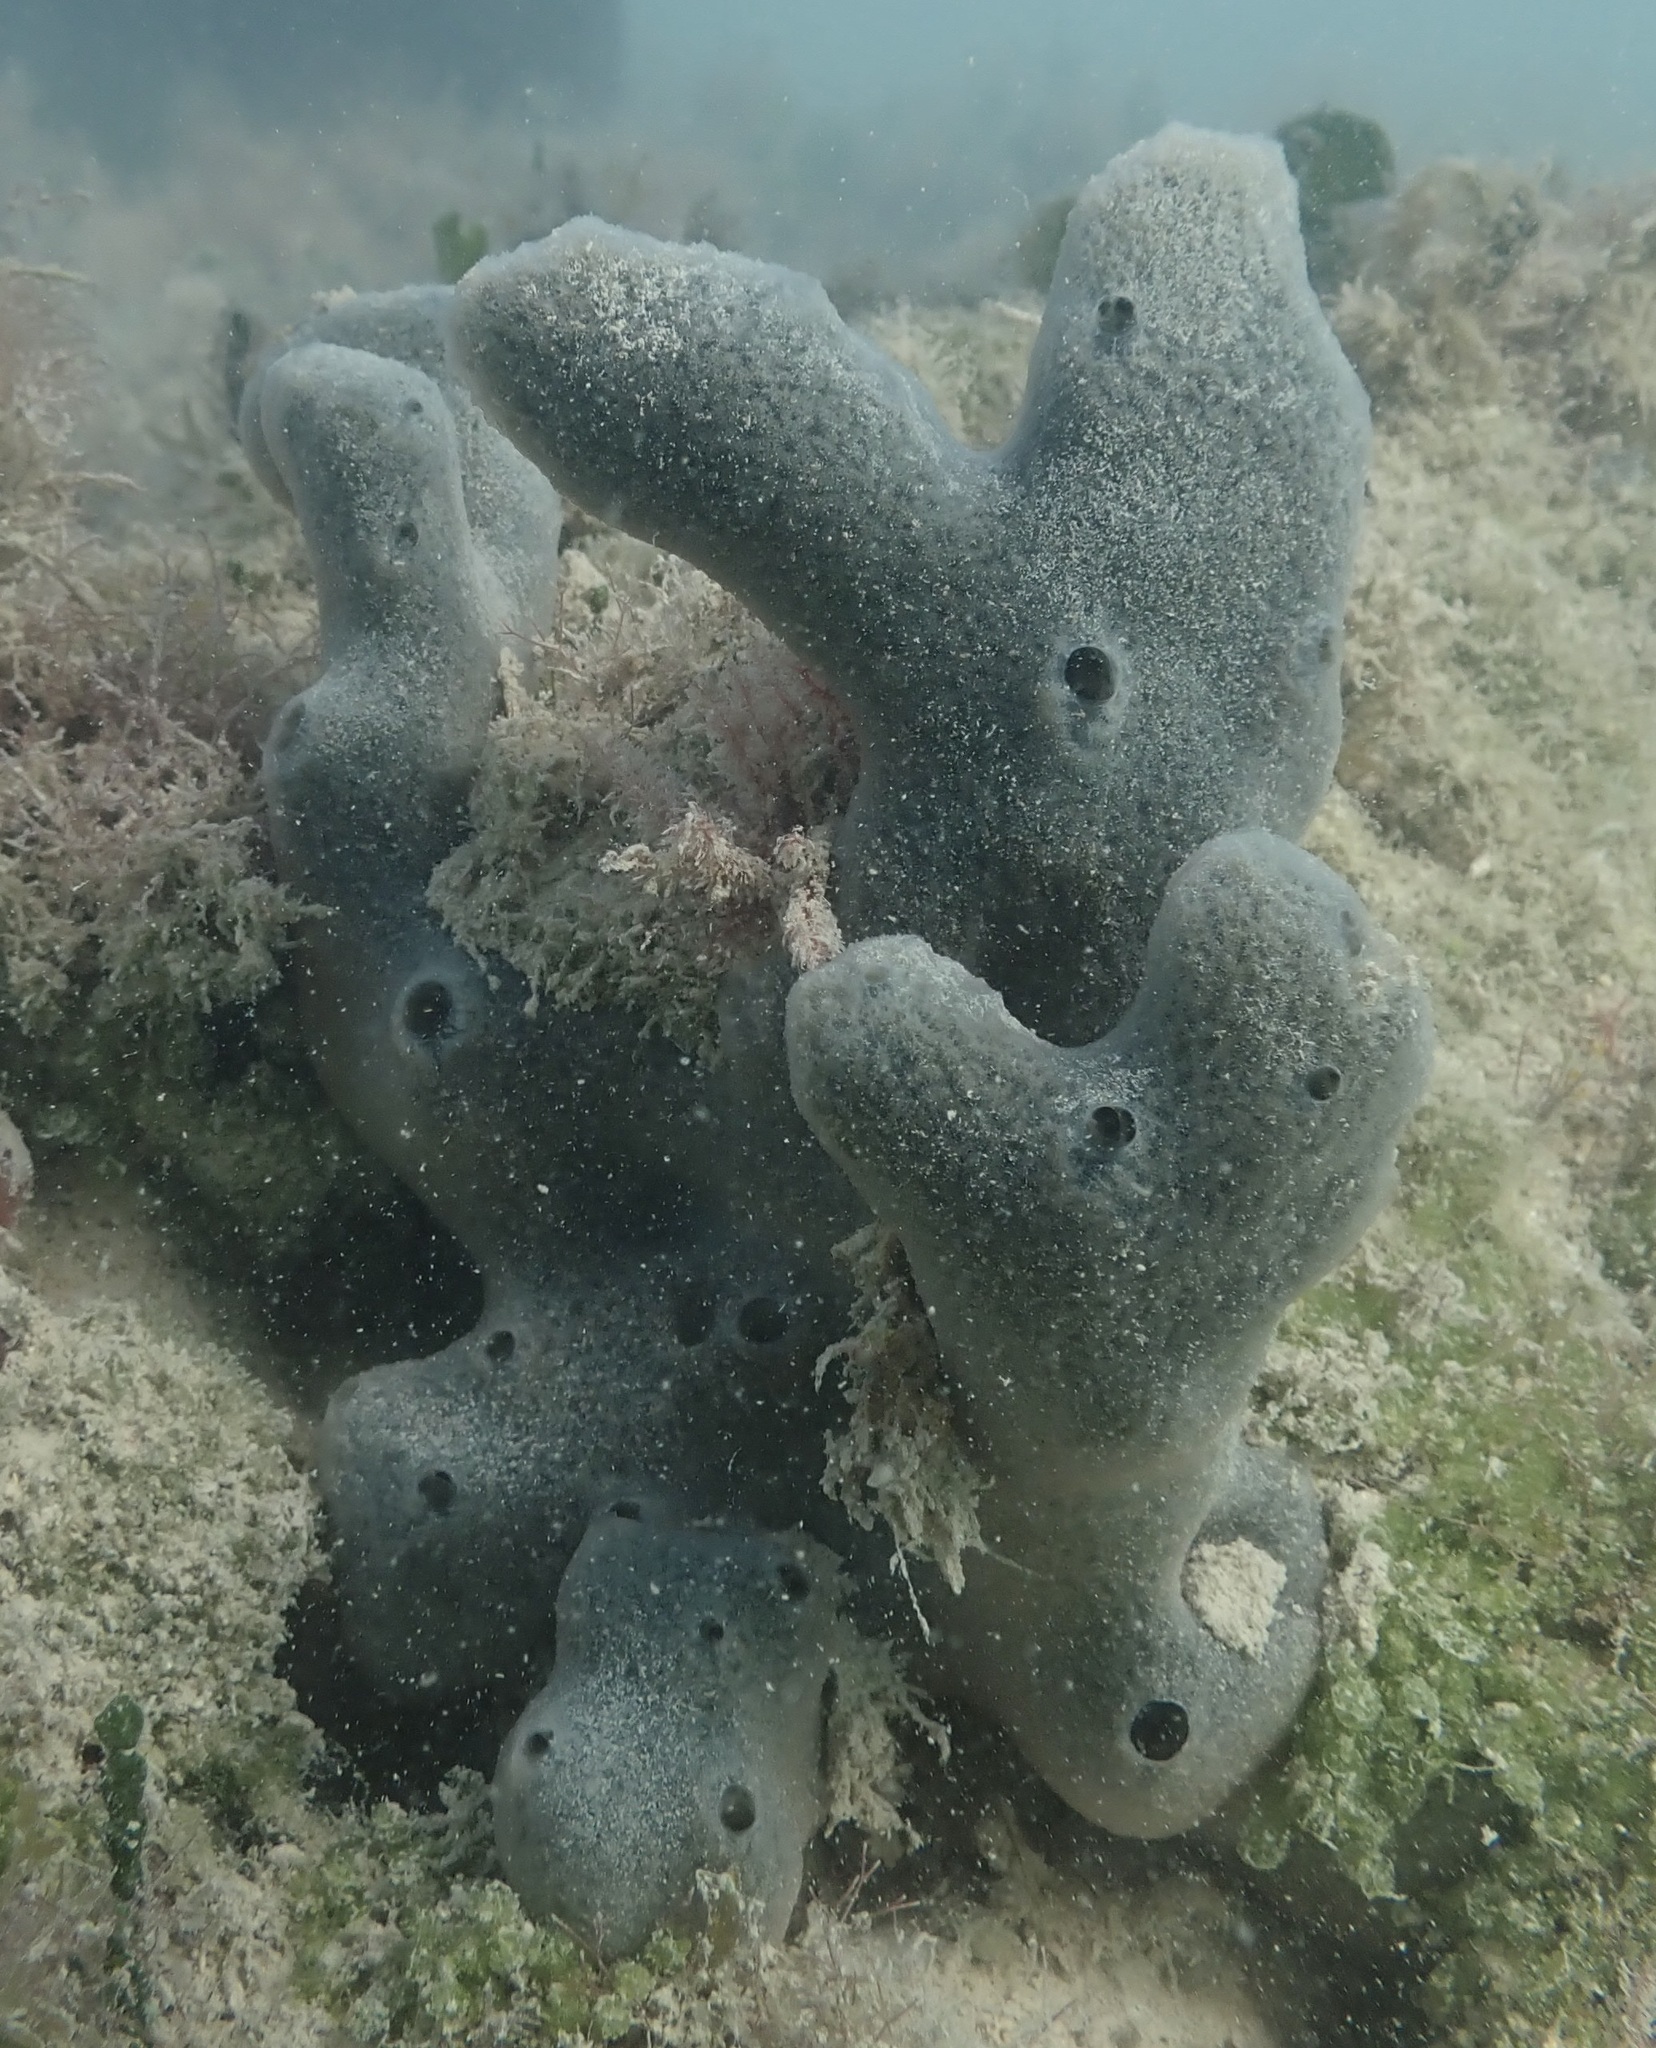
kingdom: Animalia
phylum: Porifera
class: Demospongiae
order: Haplosclerida
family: Niphatidae
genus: Niphates
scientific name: Niphates caycedoi
